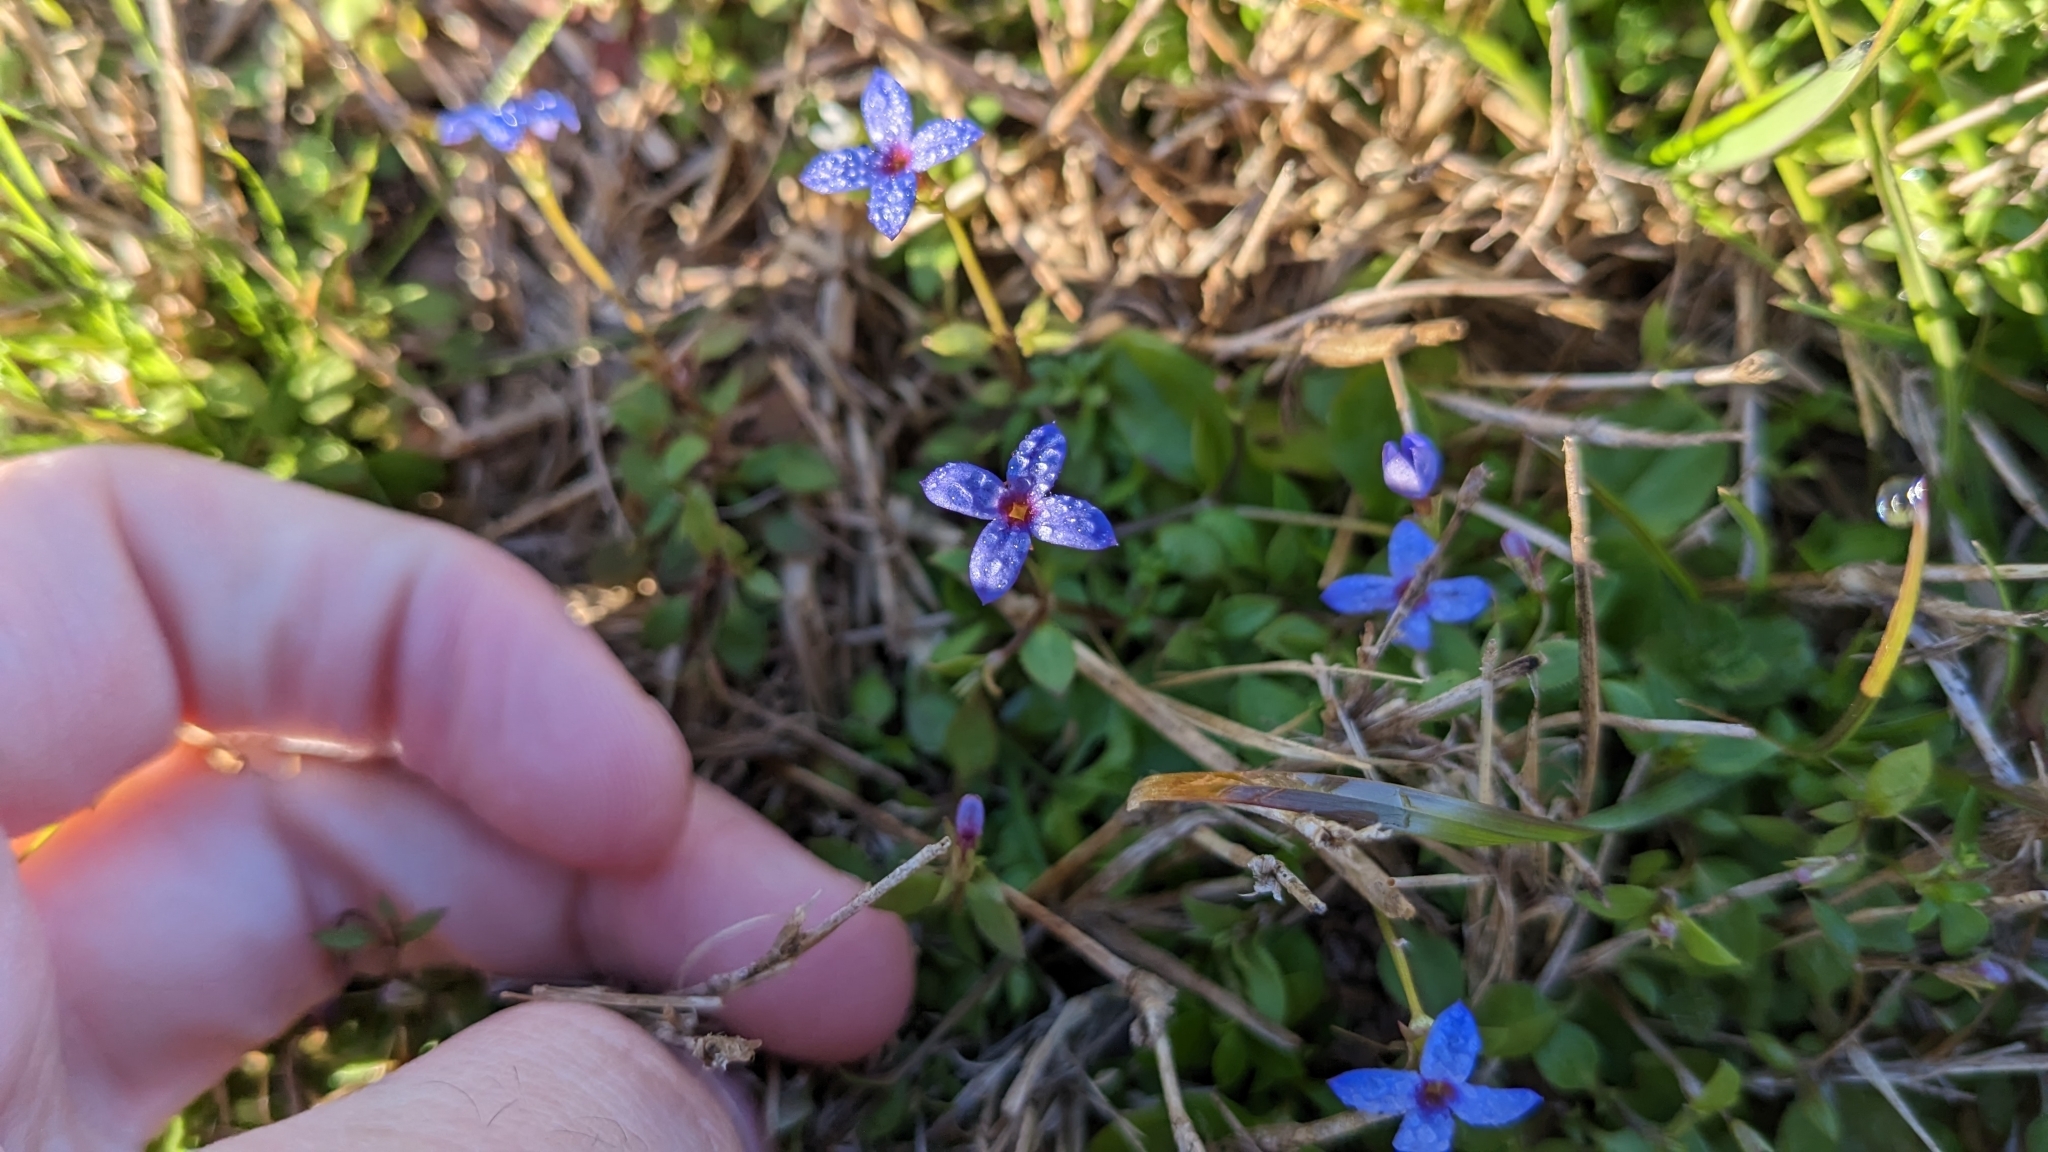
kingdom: Plantae
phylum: Tracheophyta
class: Magnoliopsida
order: Gentianales
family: Rubiaceae
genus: Houstonia
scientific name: Houstonia pusilla
